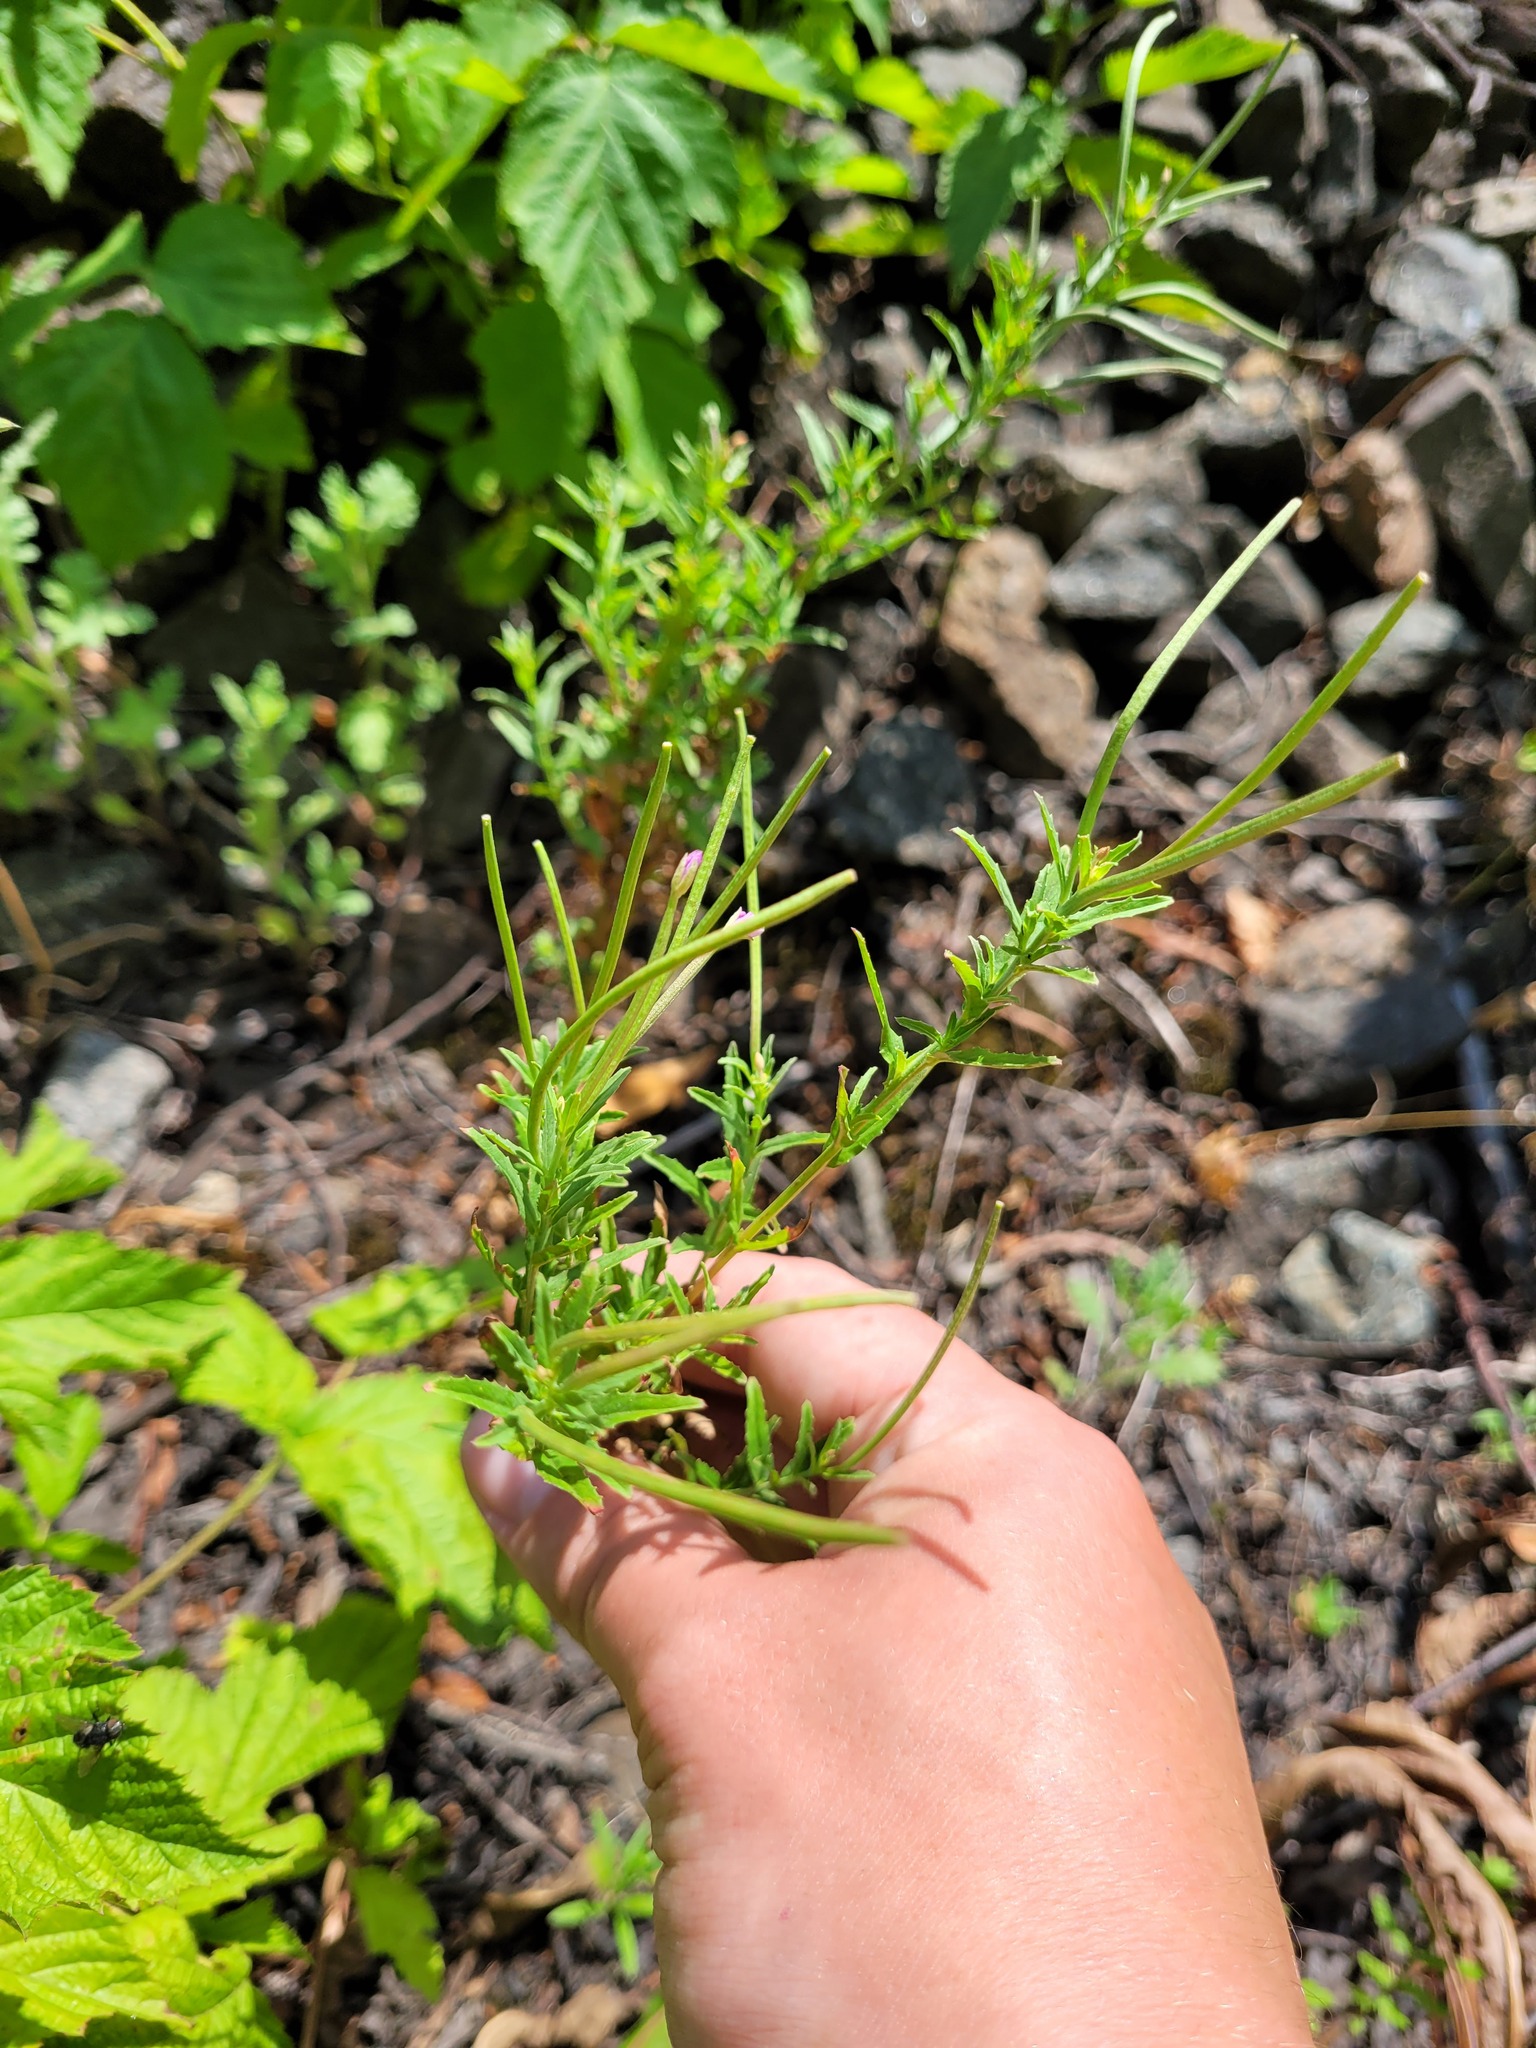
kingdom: Plantae
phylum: Tracheophyta
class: Magnoliopsida
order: Myrtales
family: Onagraceae
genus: Epilobium
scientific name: Epilobium tetragonum
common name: Square-stemmed willowherb
